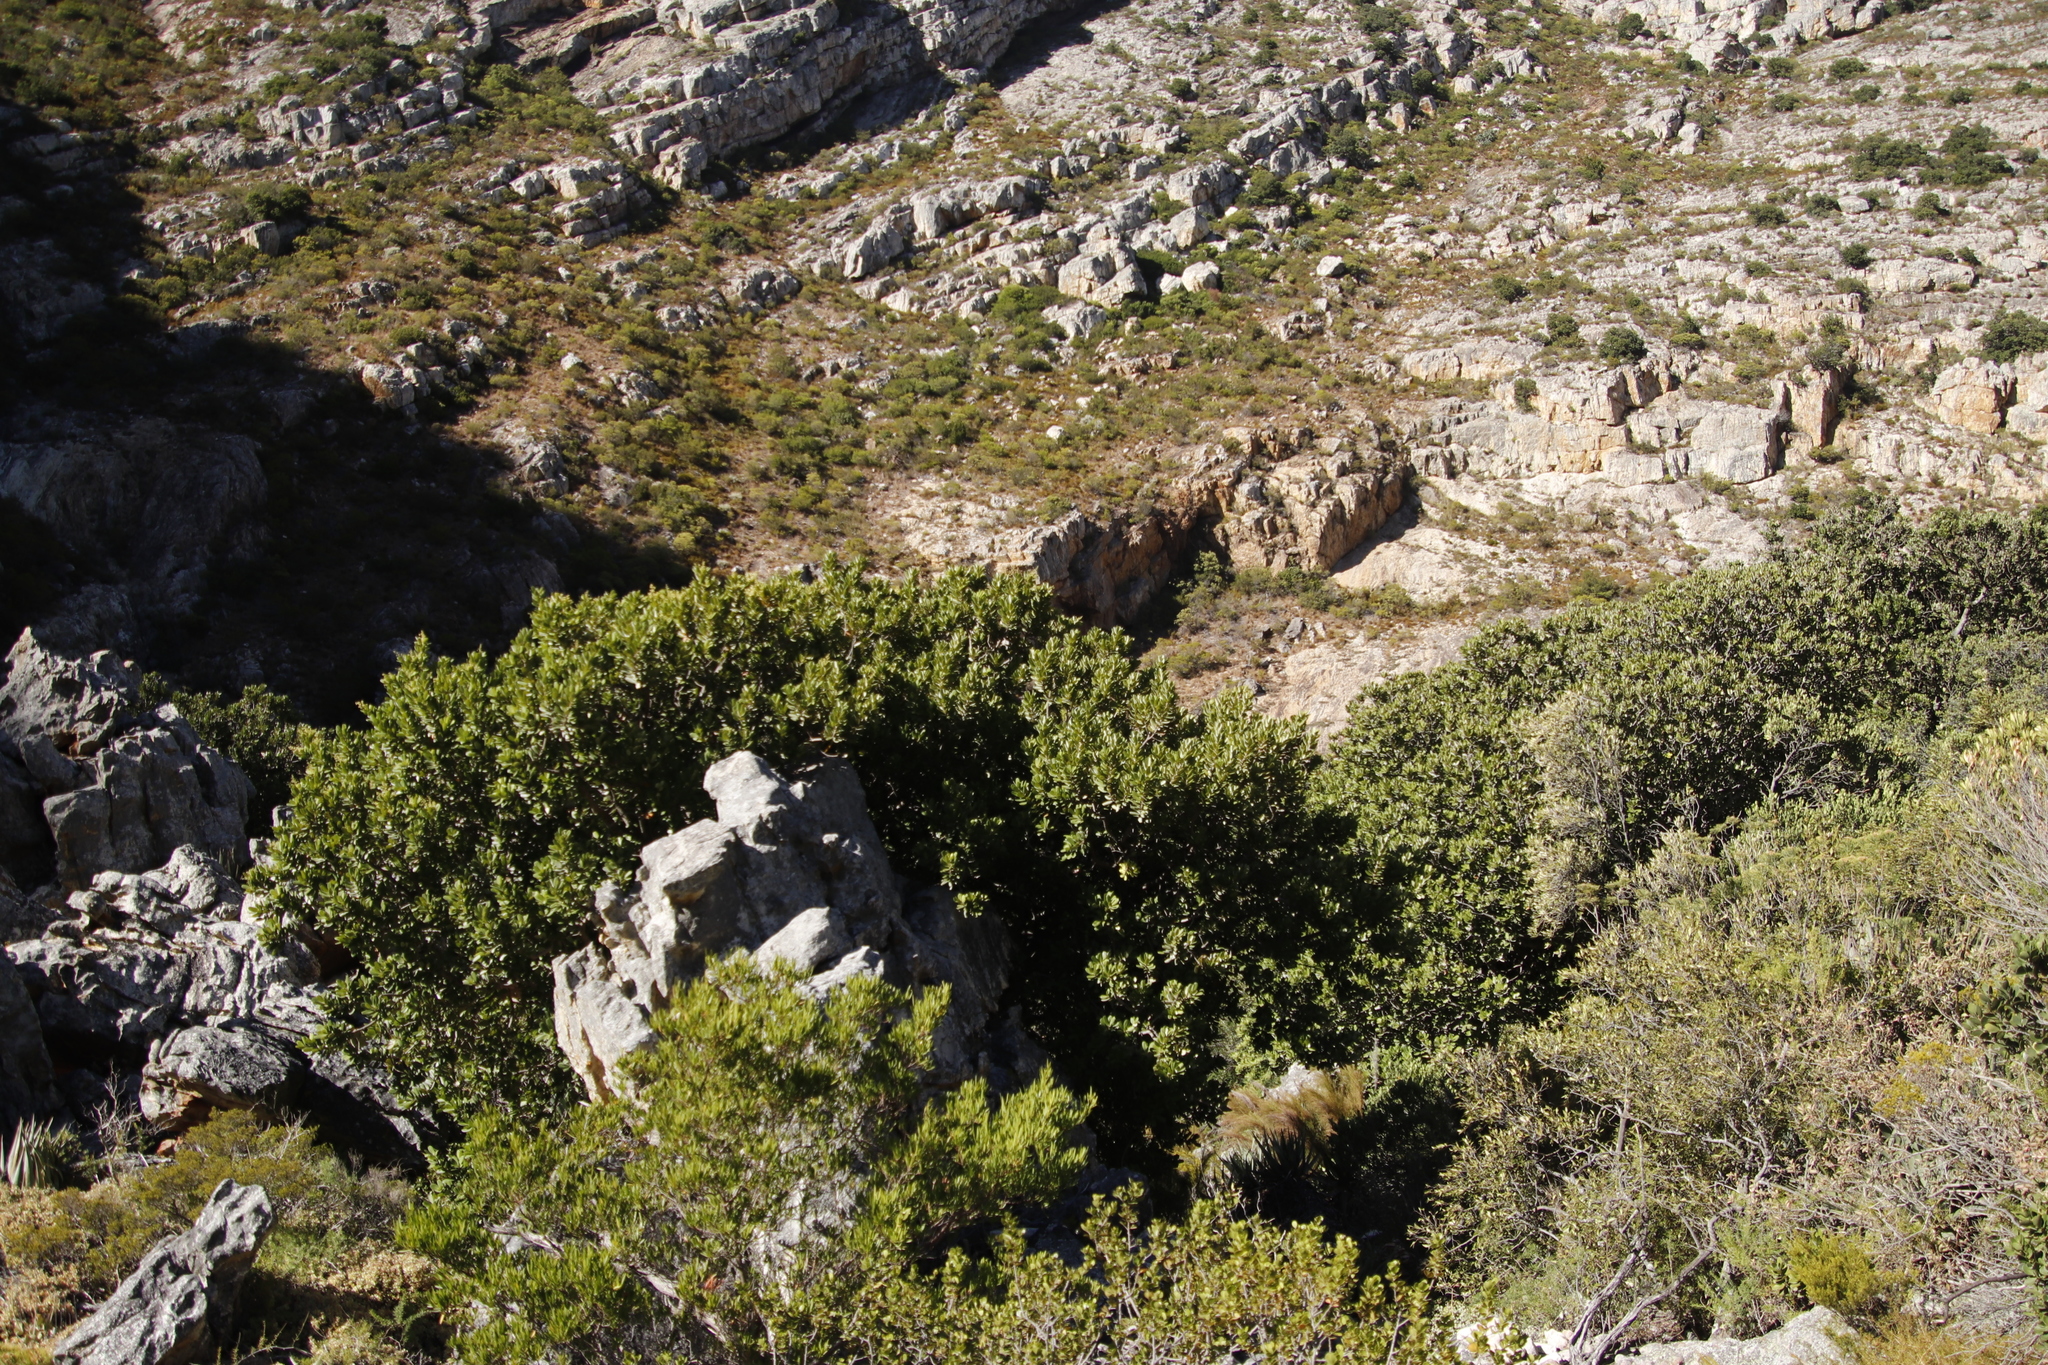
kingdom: Plantae
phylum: Tracheophyta
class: Magnoliopsida
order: Sapindales
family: Anacardiaceae
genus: Heeria
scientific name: Heeria argentea
